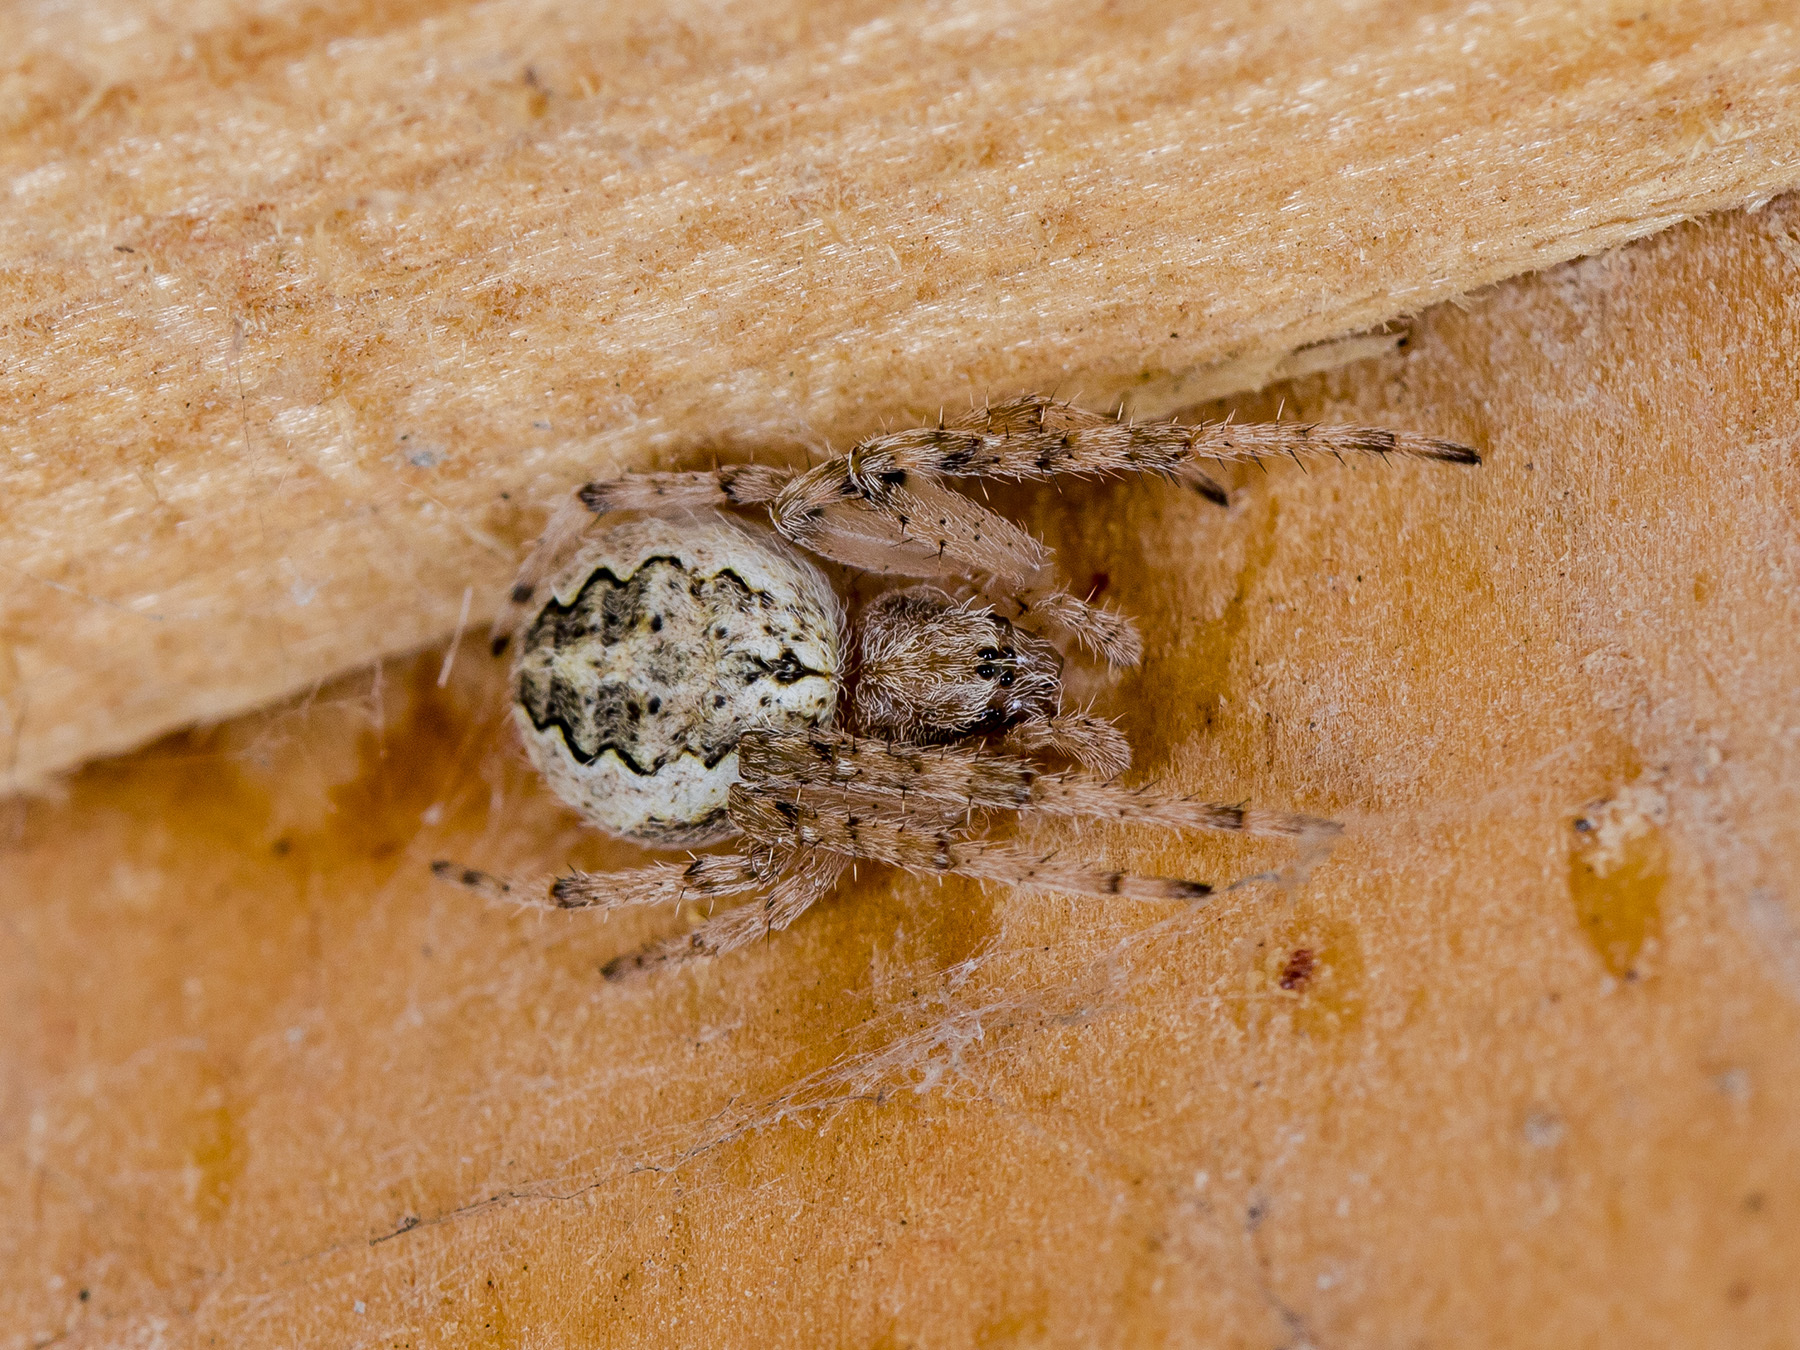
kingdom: Animalia
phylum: Arthropoda
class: Arachnida
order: Araneae
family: Araneidae
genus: Larinioides
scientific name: Larinioides ixobolus
